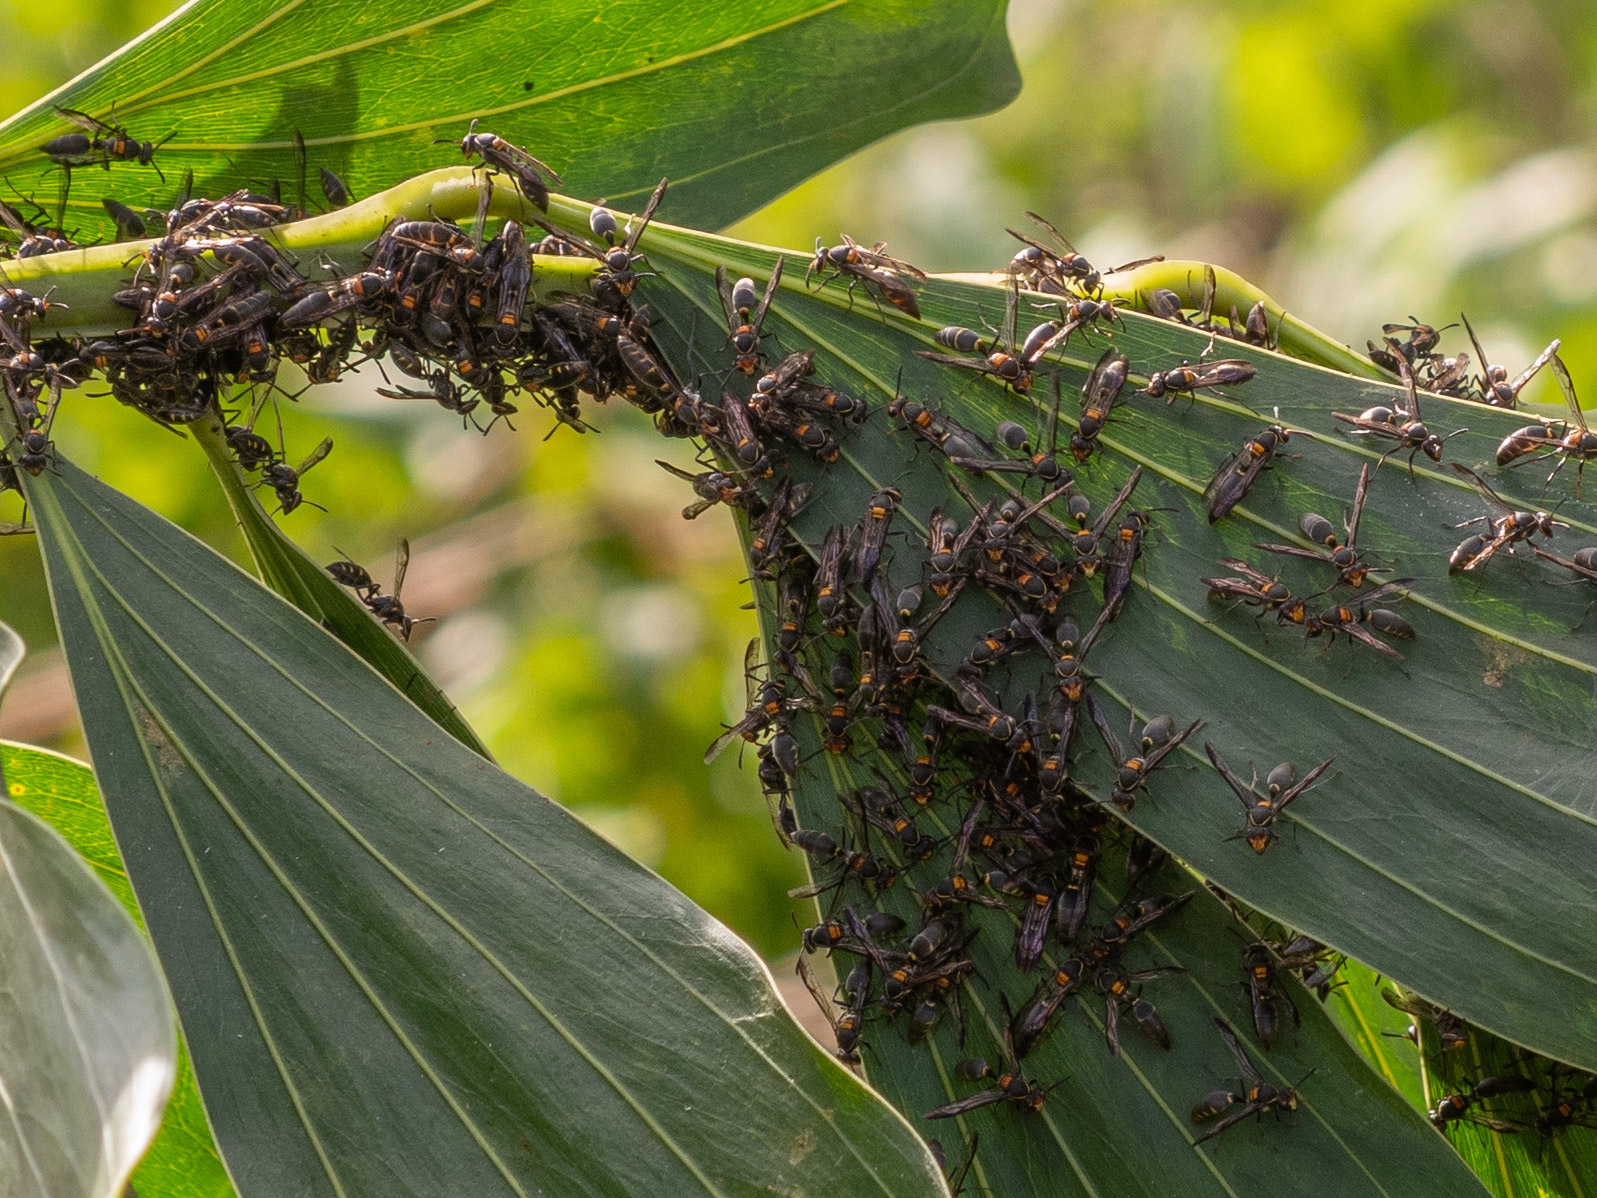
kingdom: Animalia
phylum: Arthropoda
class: Insecta
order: Hymenoptera
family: Eumenidae
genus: Polybia
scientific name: Polybia ruficeps
